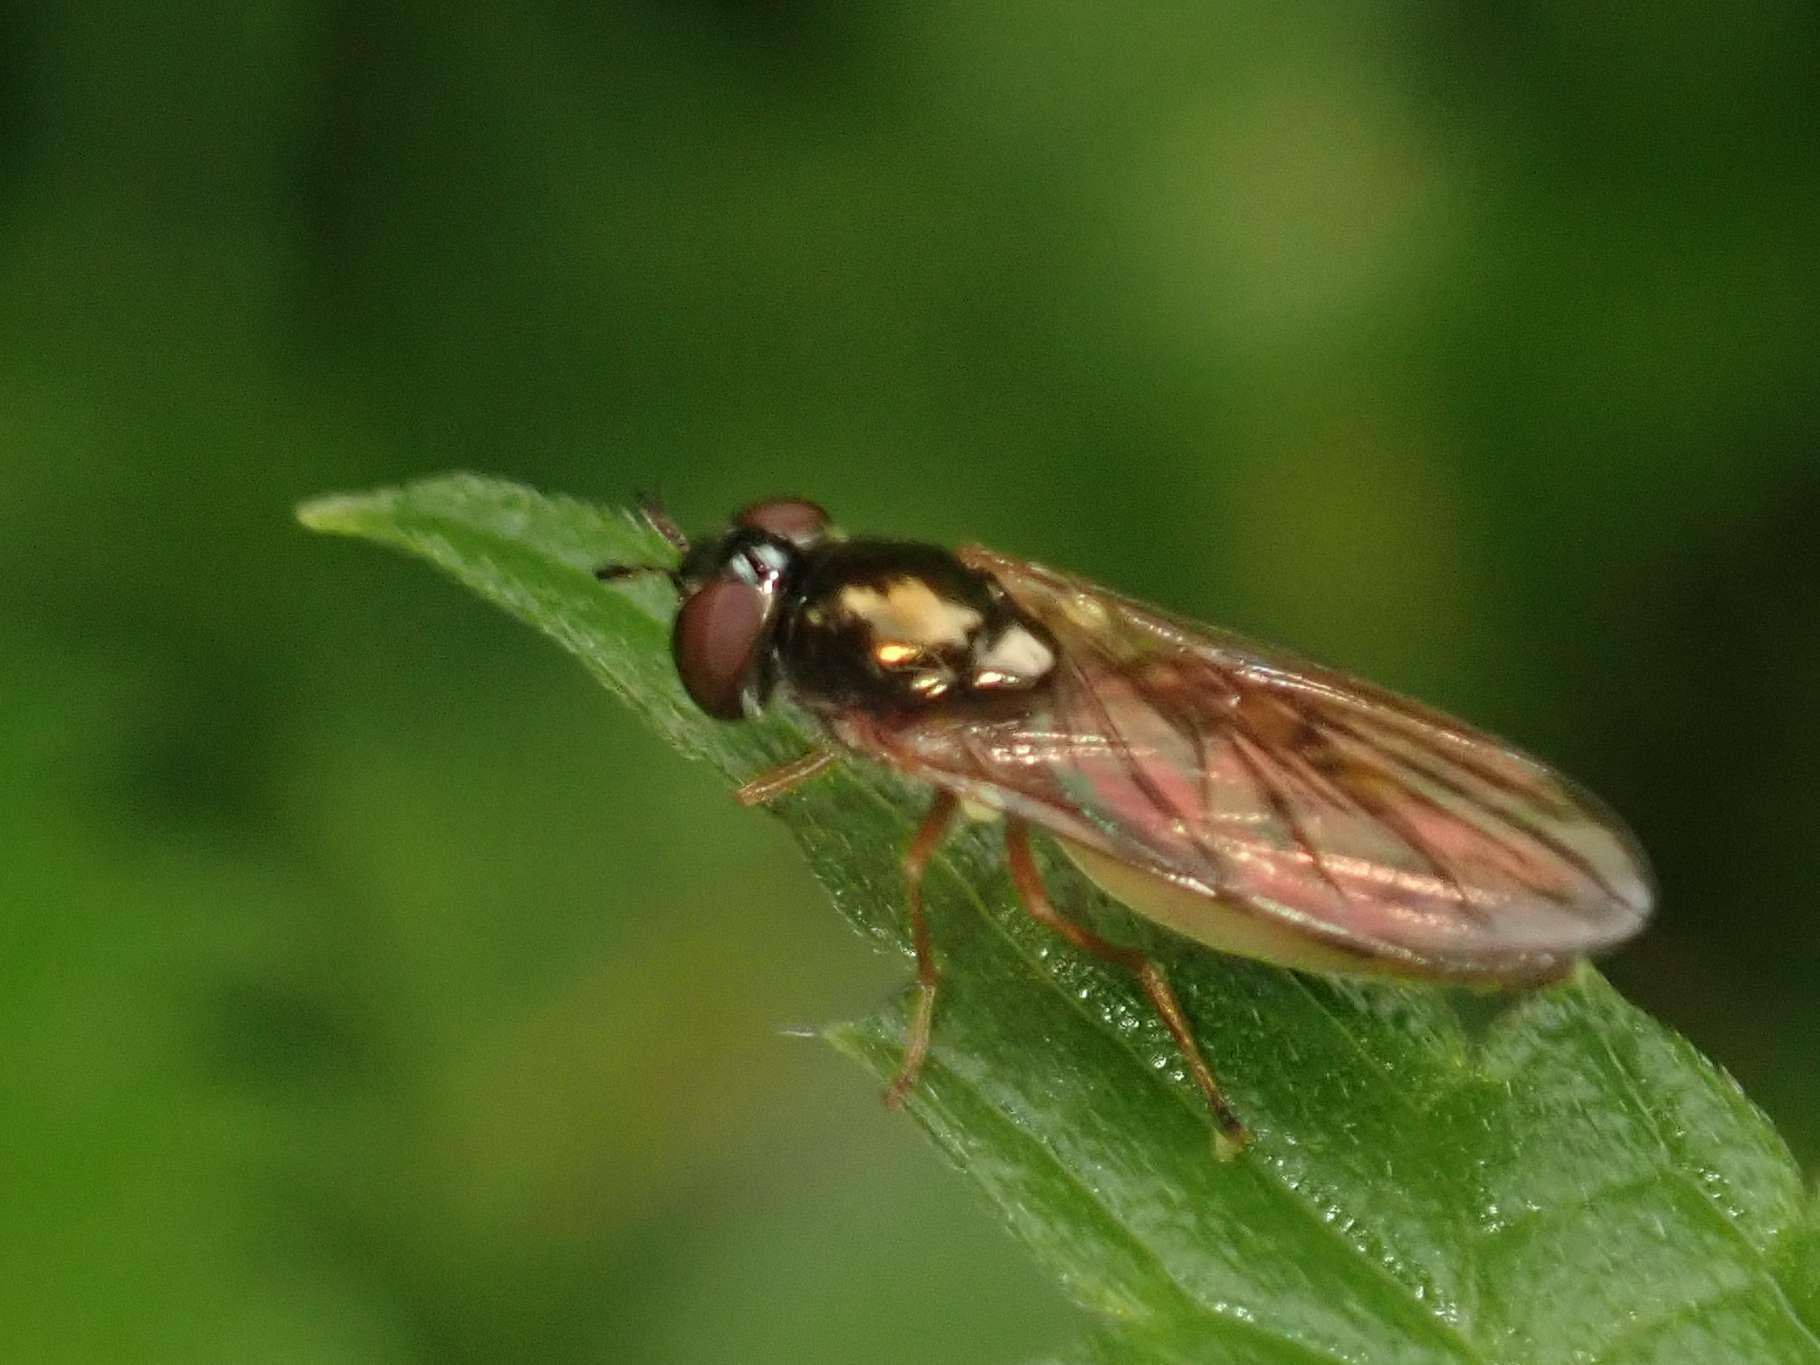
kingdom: Animalia
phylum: Arthropoda
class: Insecta
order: Diptera
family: Syrphidae
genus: Melanostoma
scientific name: Melanostoma mellina
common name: Hover fly
